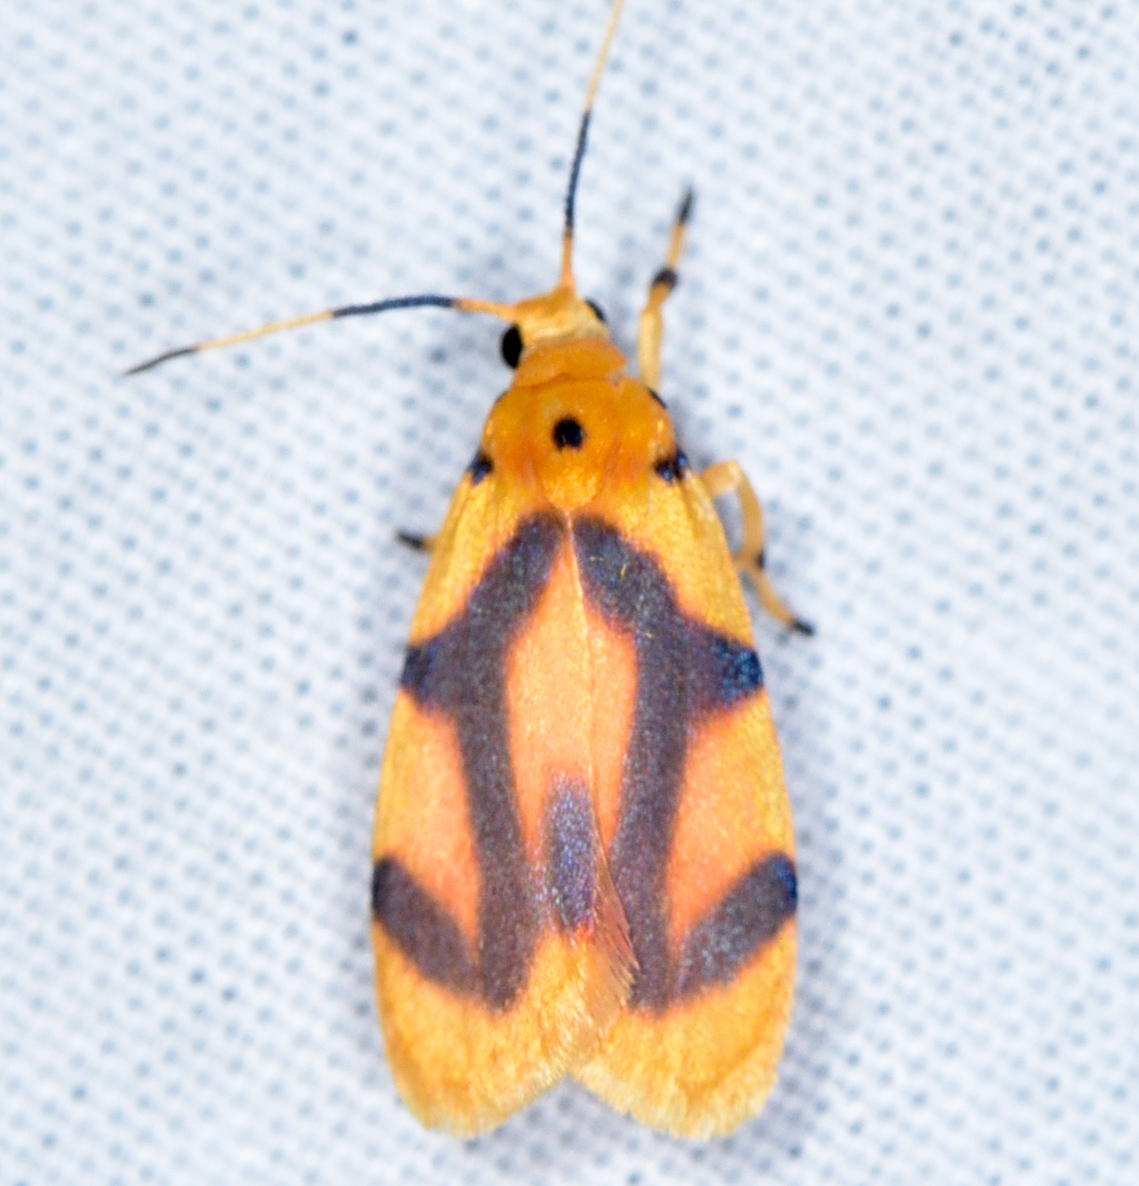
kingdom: Animalia
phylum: Arthropoda
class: Insecta
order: Lepidoptera
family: Erebidae
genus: Gaudeator
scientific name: Gaudeator paidicus
